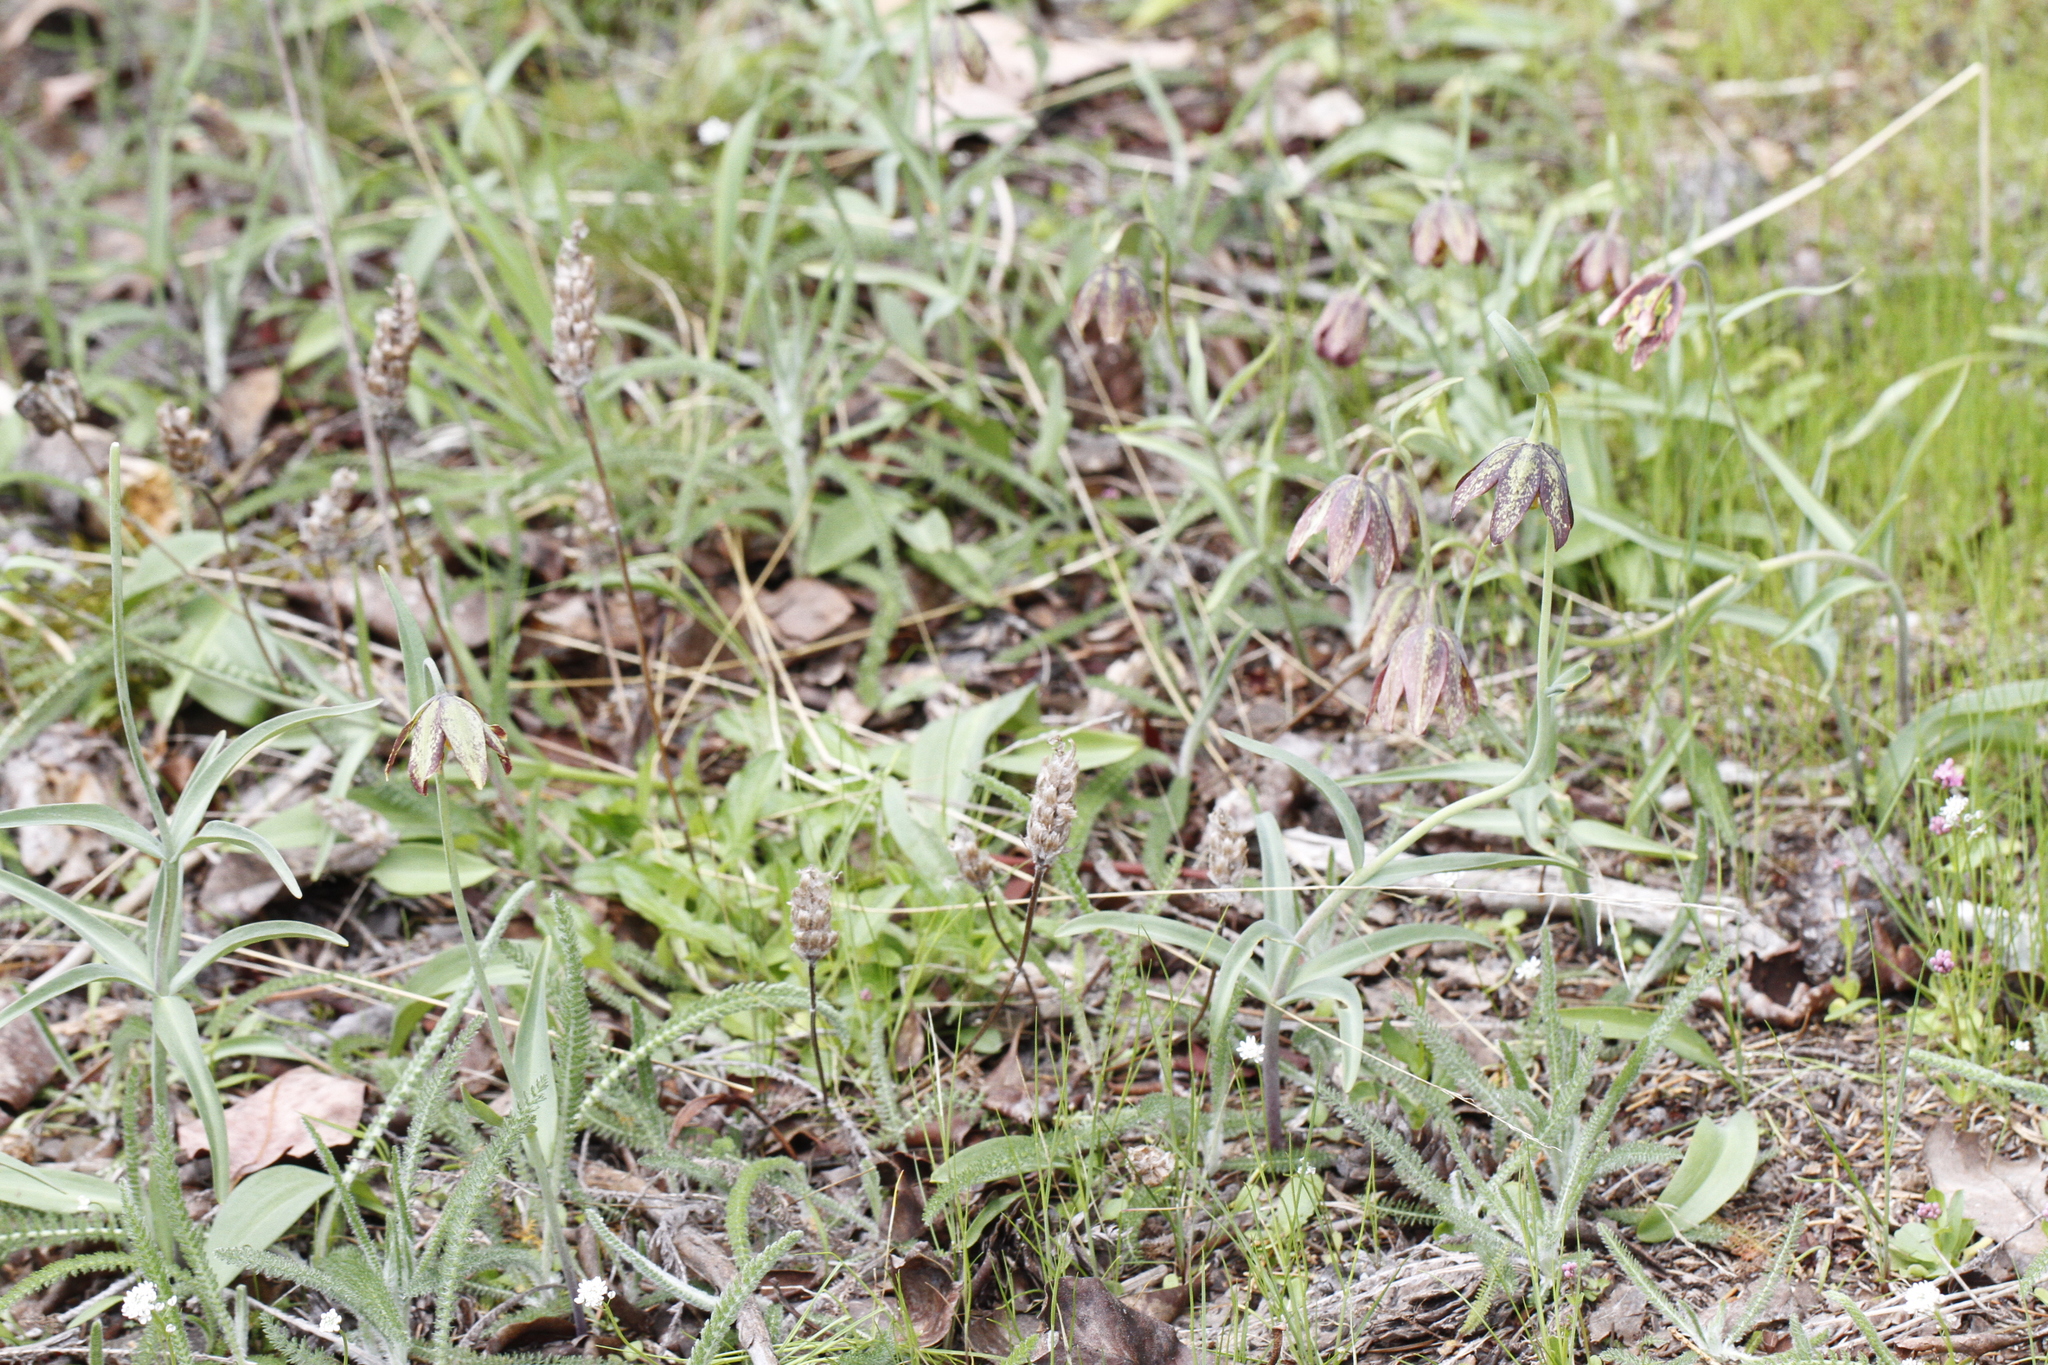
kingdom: Plantae
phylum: Tracheophyta
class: Liliopsida
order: Liliales
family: Liliaceae
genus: Fritillaria
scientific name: Fritillaria affinis
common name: Ojai fritillary
